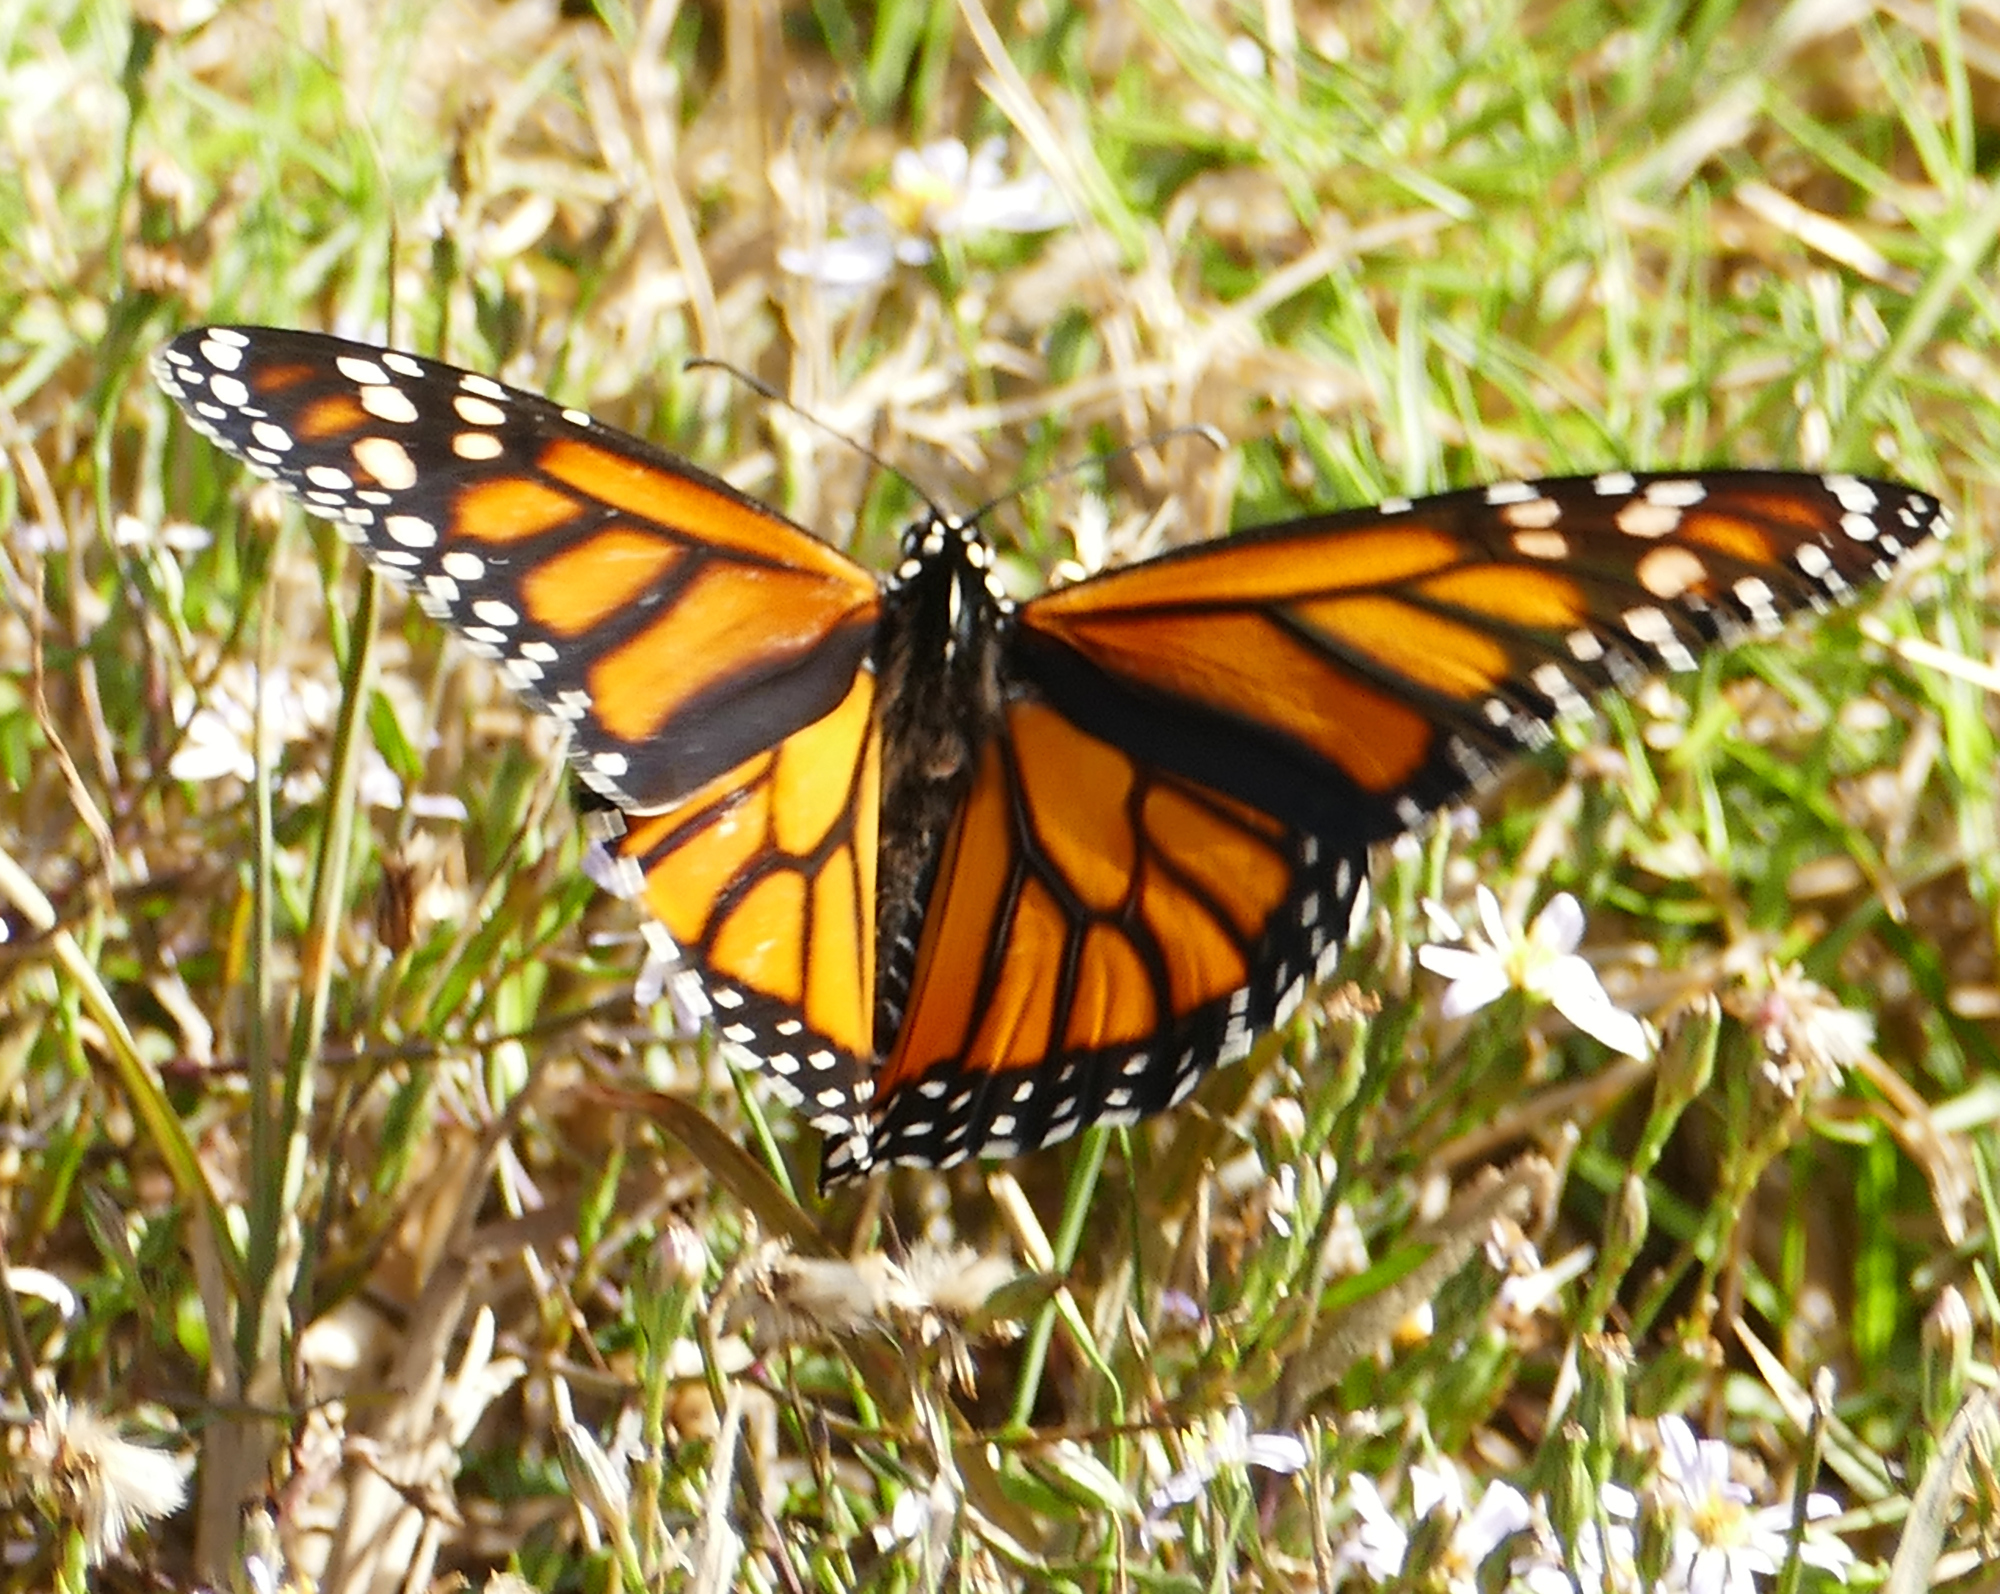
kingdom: Animalia
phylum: Arthropoda
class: Insecta
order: Lepidoptera
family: Nymphalidae
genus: Danaus
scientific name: Danaus plexippus
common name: Monarch
